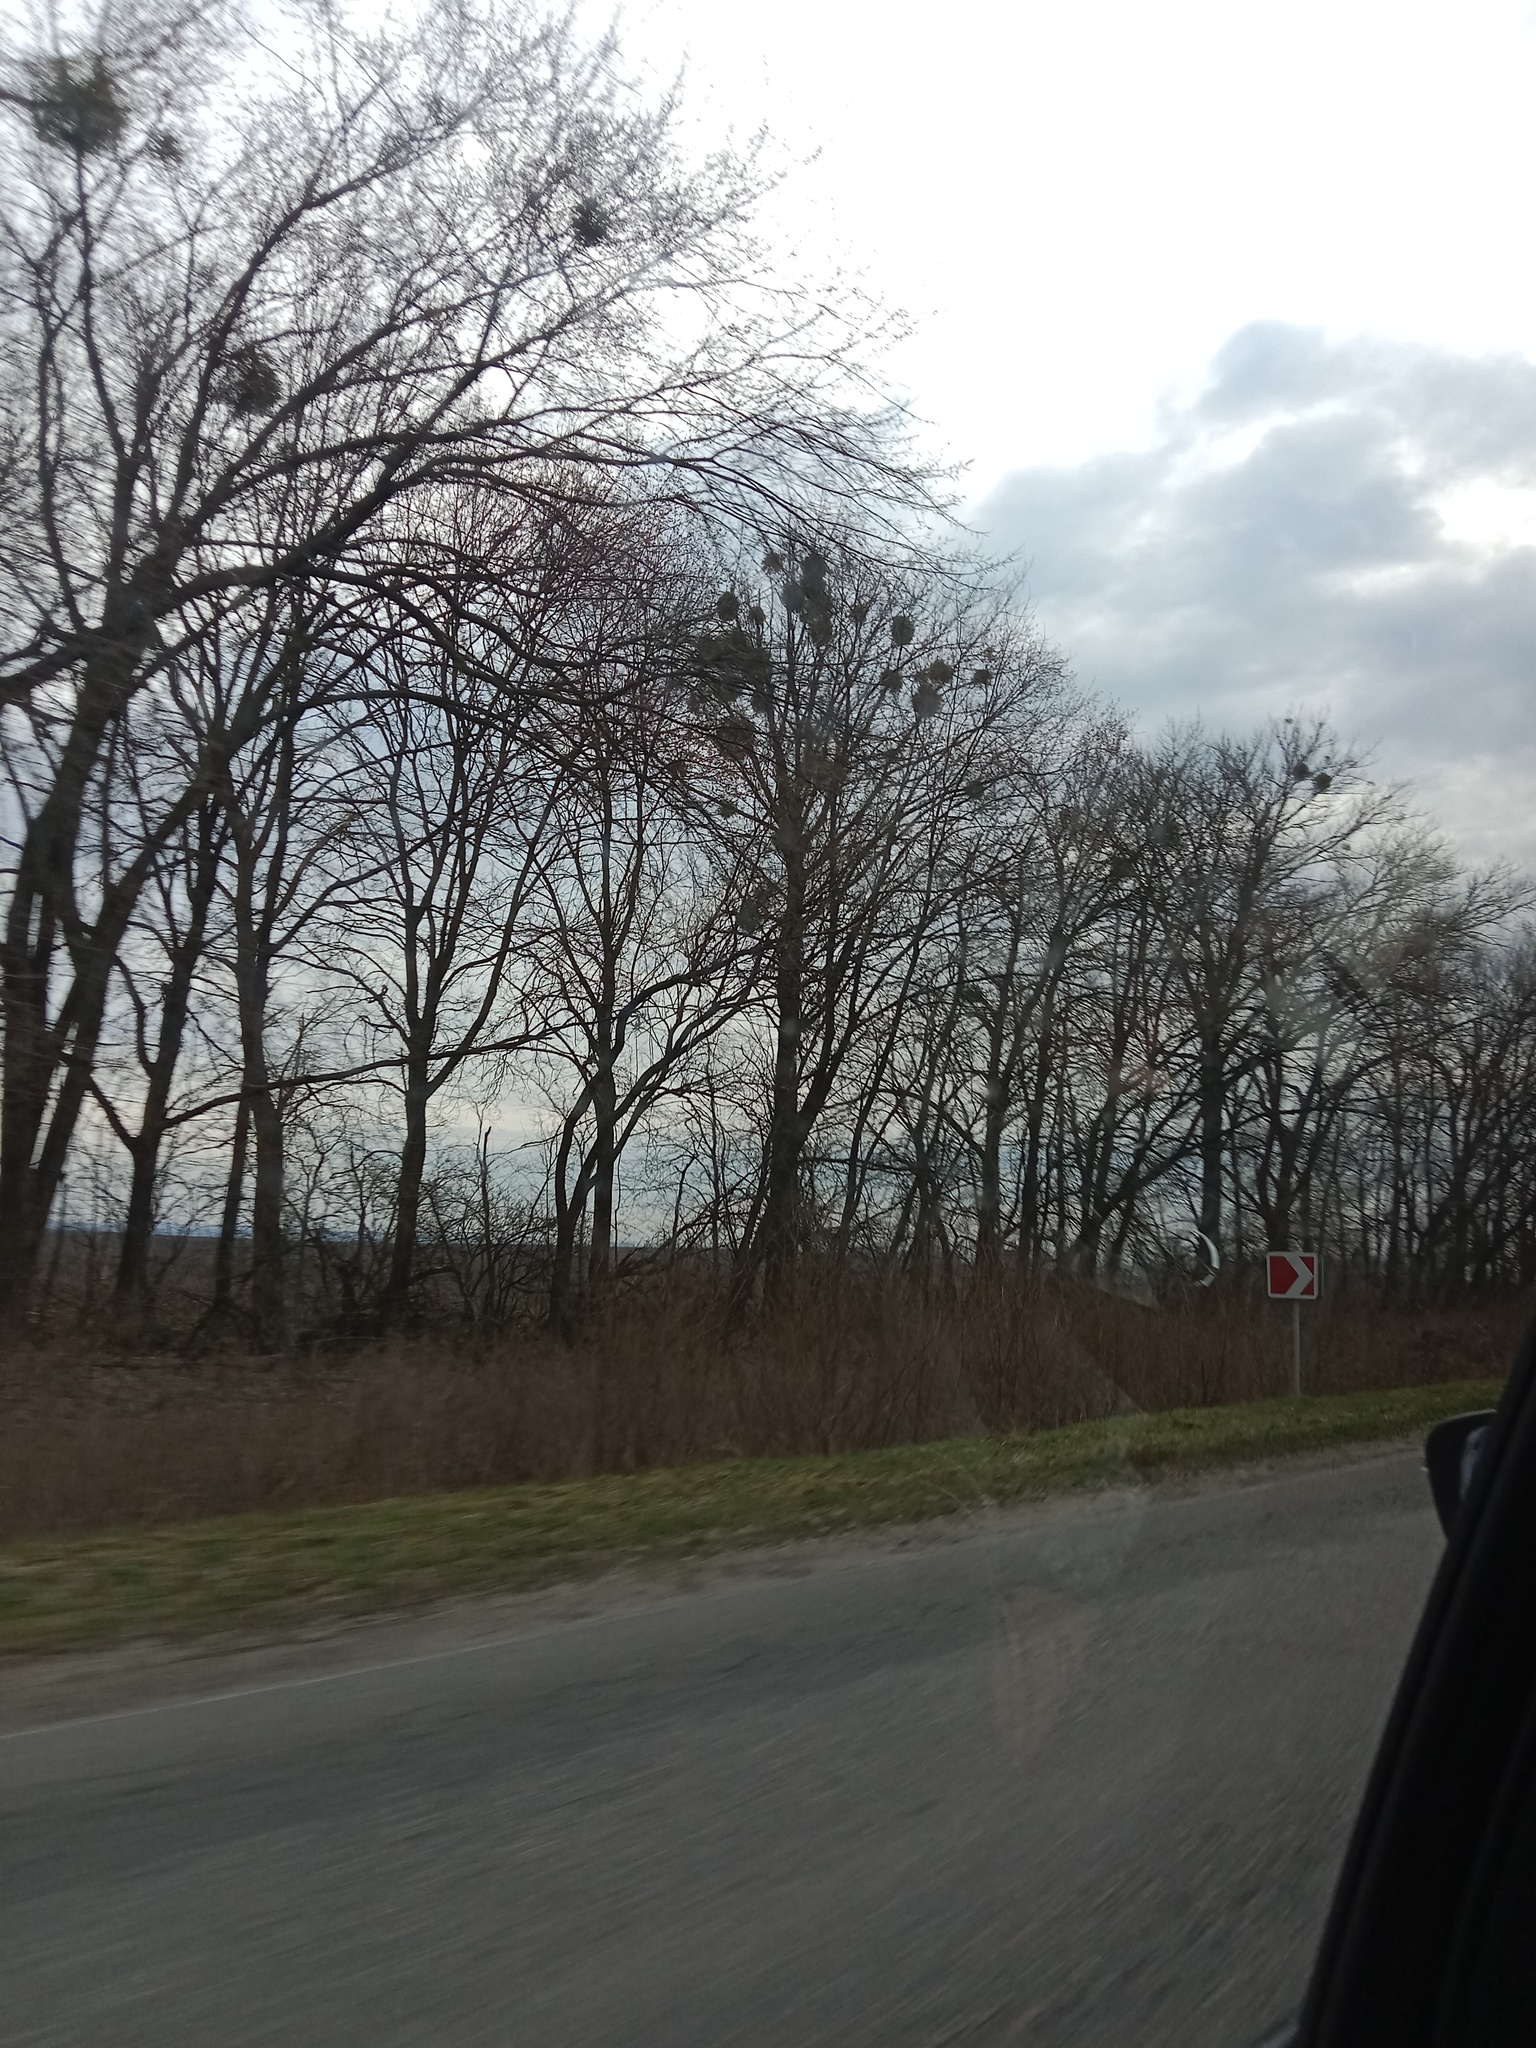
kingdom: Plantae
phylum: Tracheophyta
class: Magnoliopsida
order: Santalales
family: Viscaceae
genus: Viscum
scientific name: Viscum album
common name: Mistletoe
